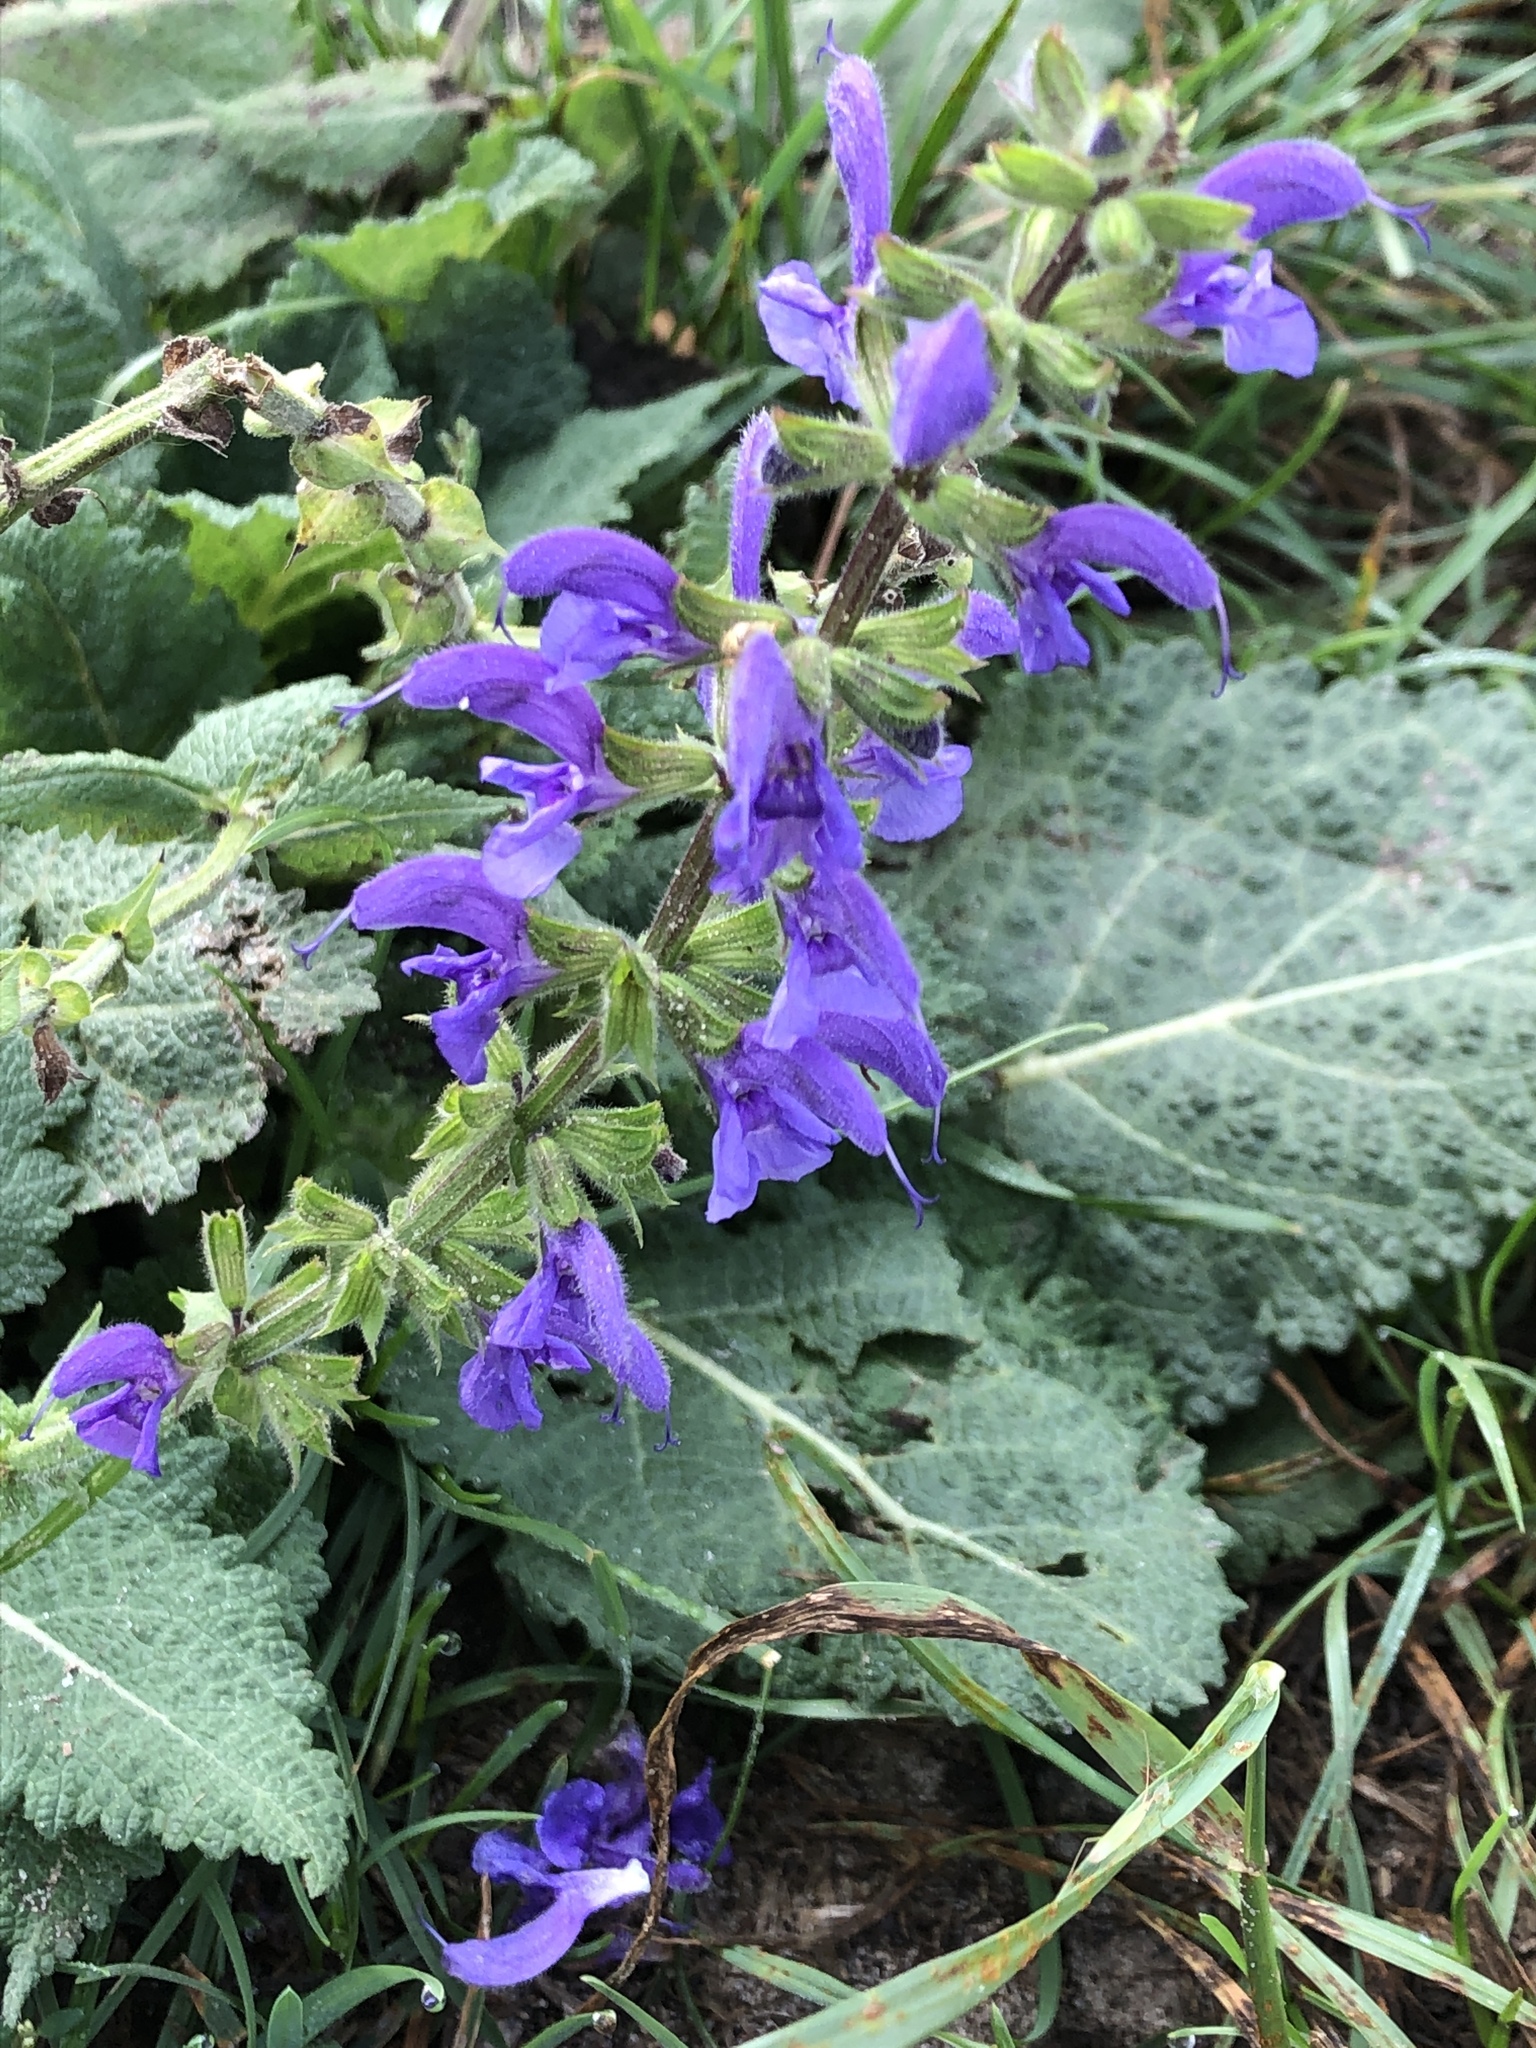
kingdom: Plantae
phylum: Tracheophyta
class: Magnoliopsida
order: Lamiales
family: Lamiaceae
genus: Salvia
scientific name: Salvia pratensis
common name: Meadow sage
